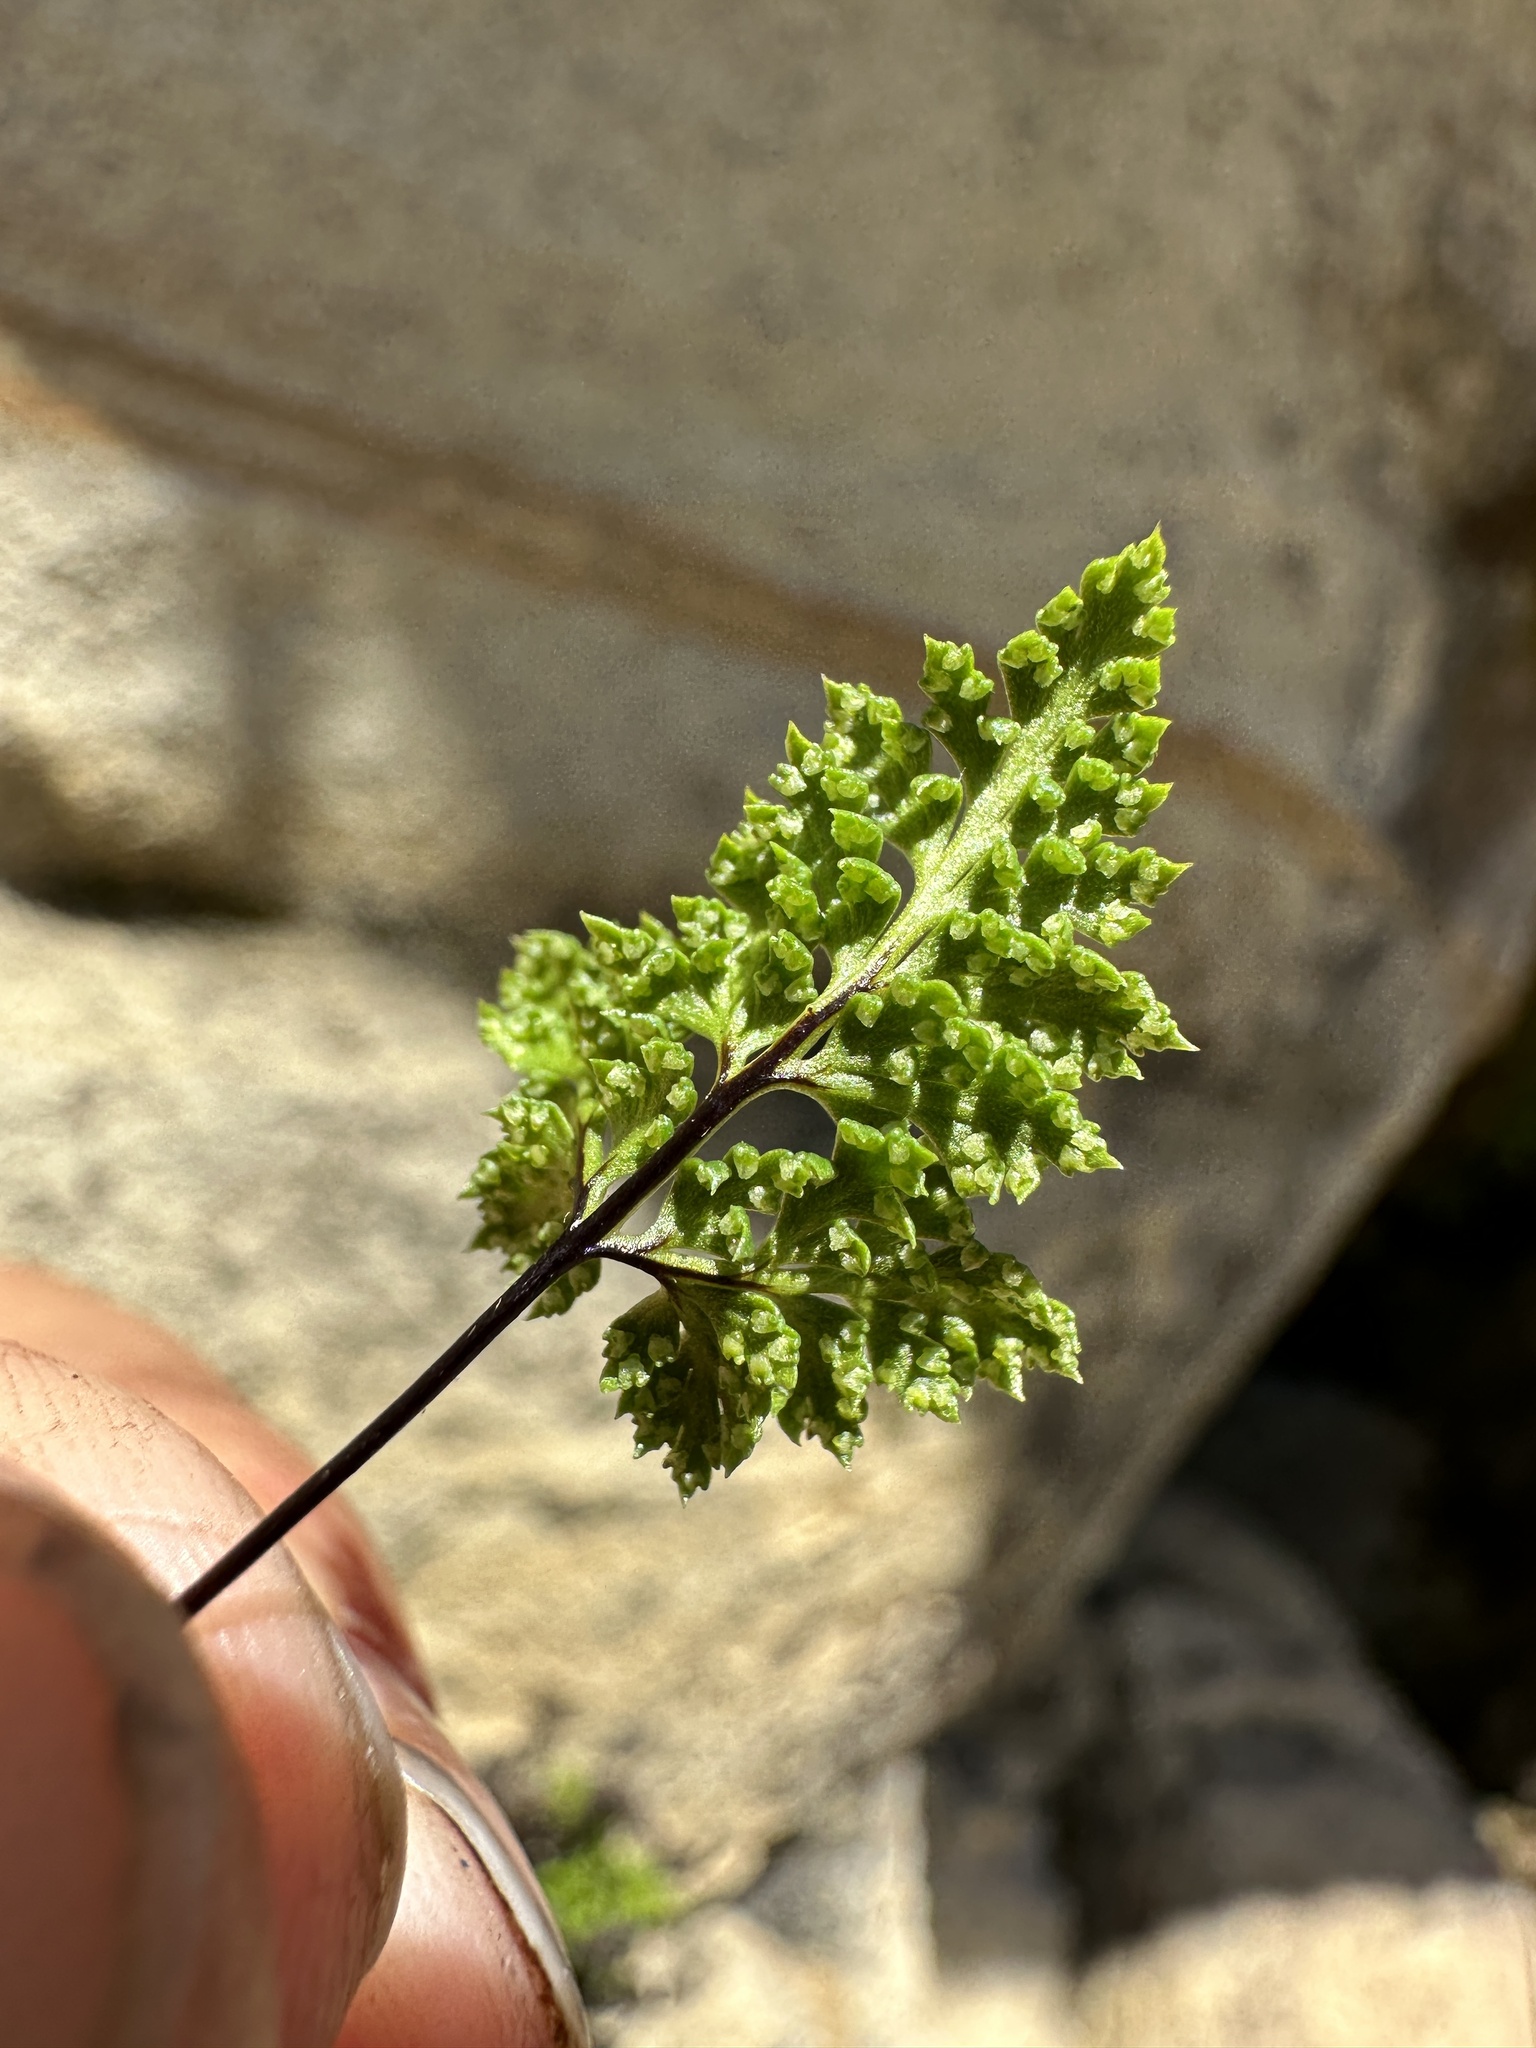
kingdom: Plantae
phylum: Tracheophyta
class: Polypodiopsida
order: Polypodiales
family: Pteridaceae
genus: Aspidotis
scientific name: Aspidotis californica
